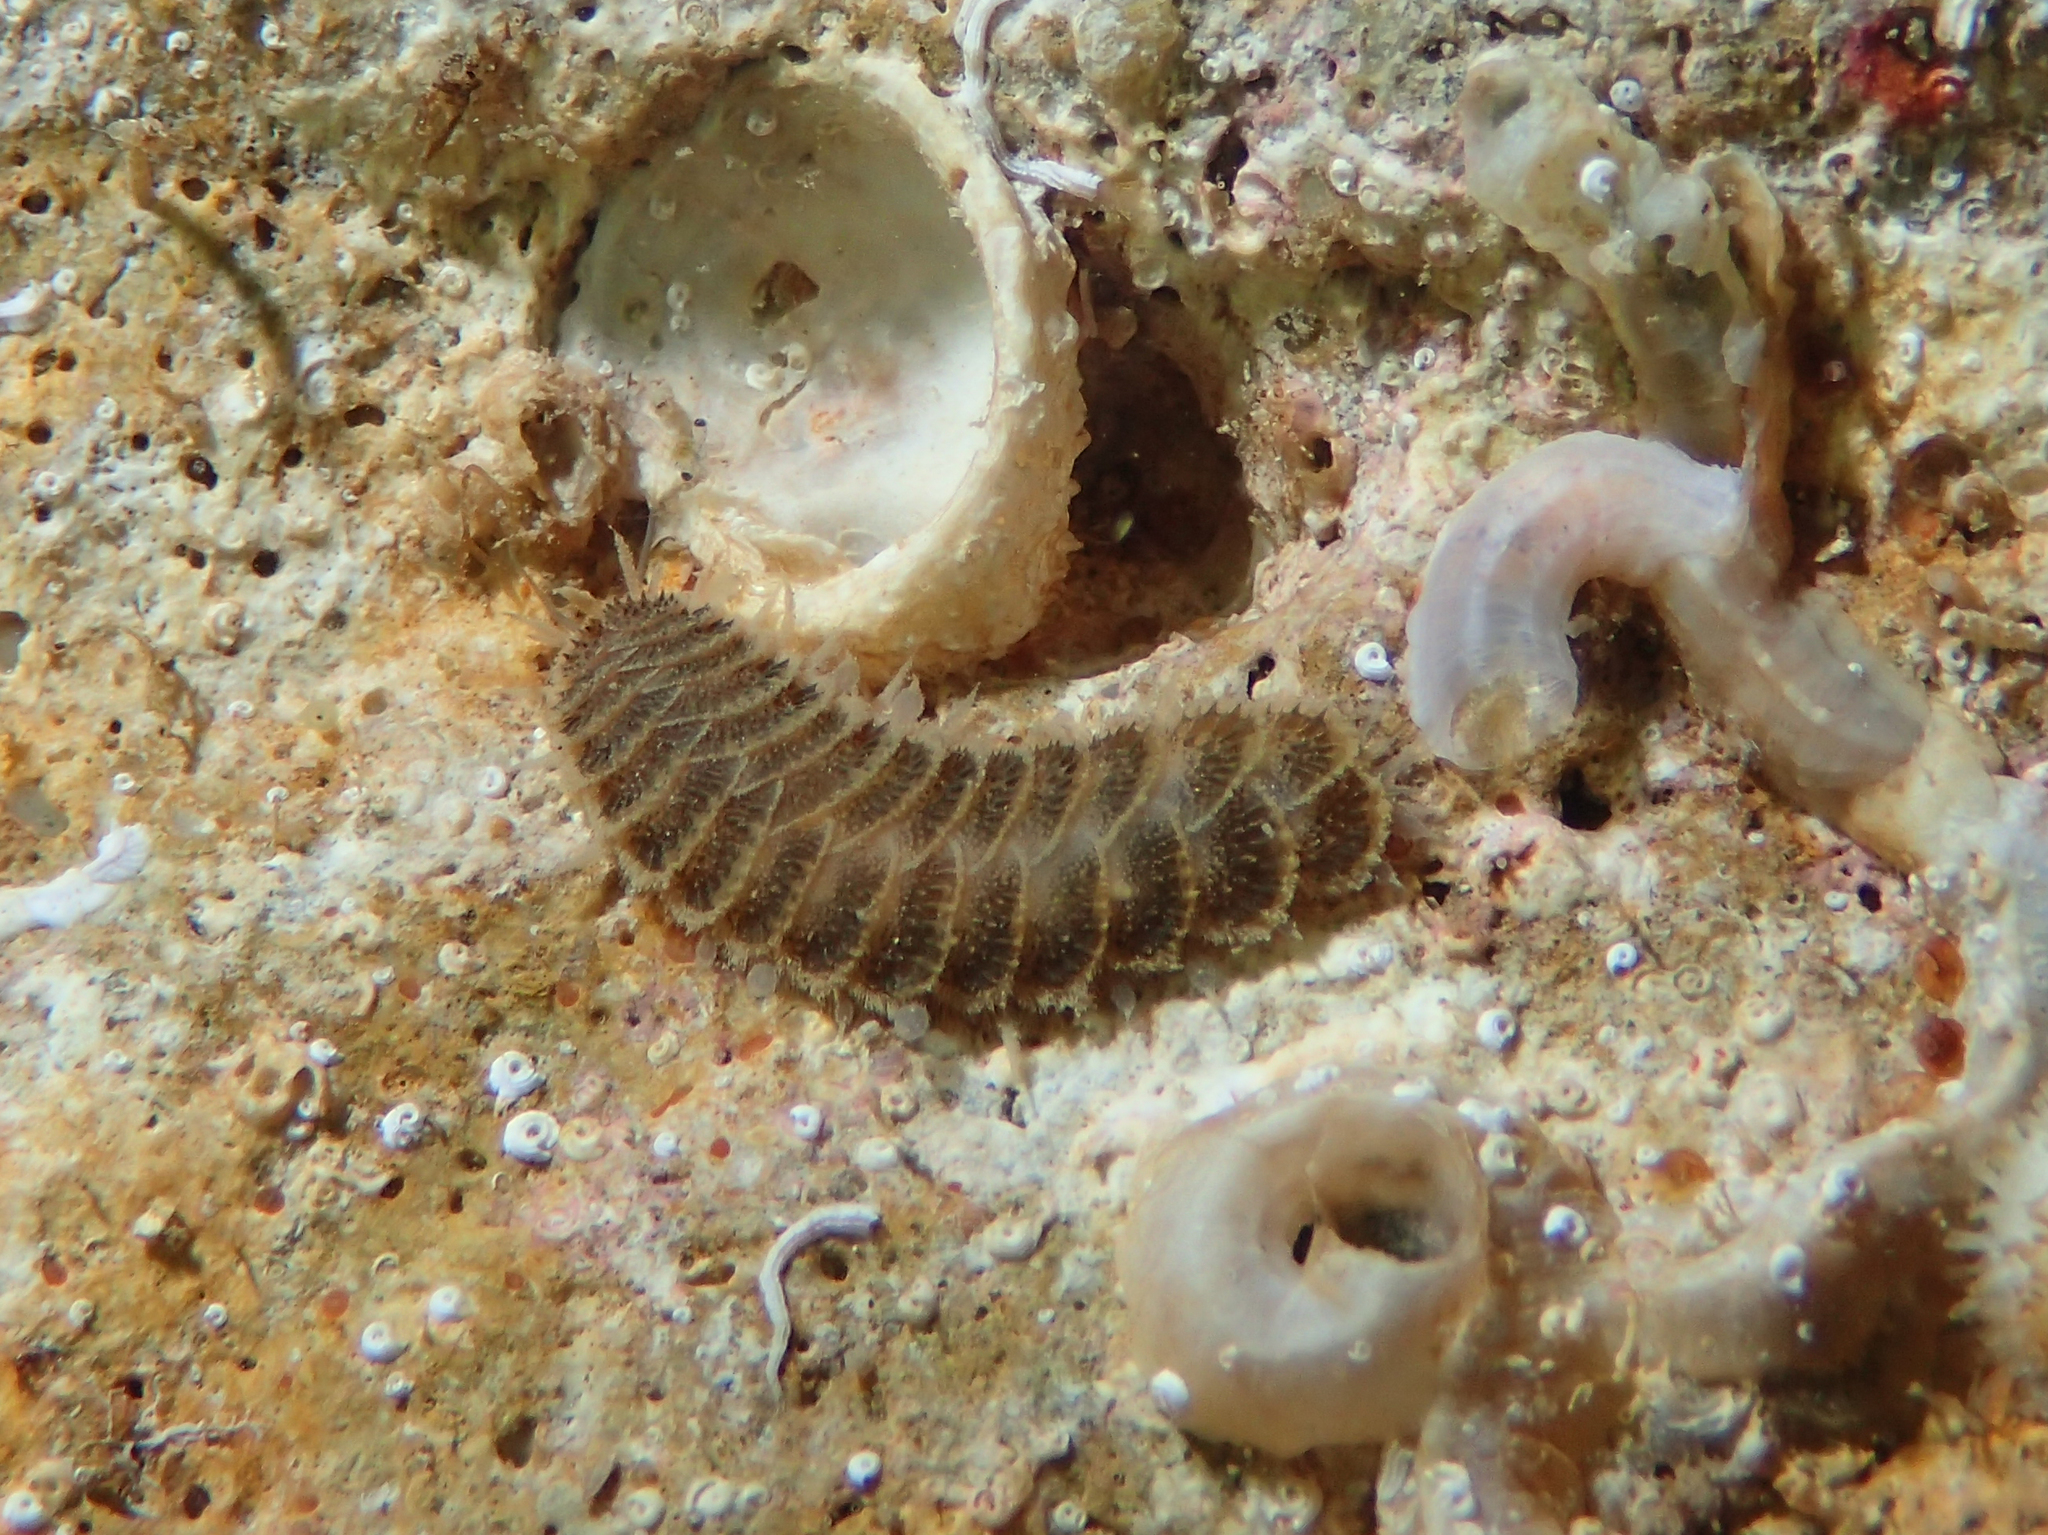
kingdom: Animalia
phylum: Annelida
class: Polychaeta
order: Phyllodocida
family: Polynoidae
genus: Harmothoe
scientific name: Harmothoe areolata
